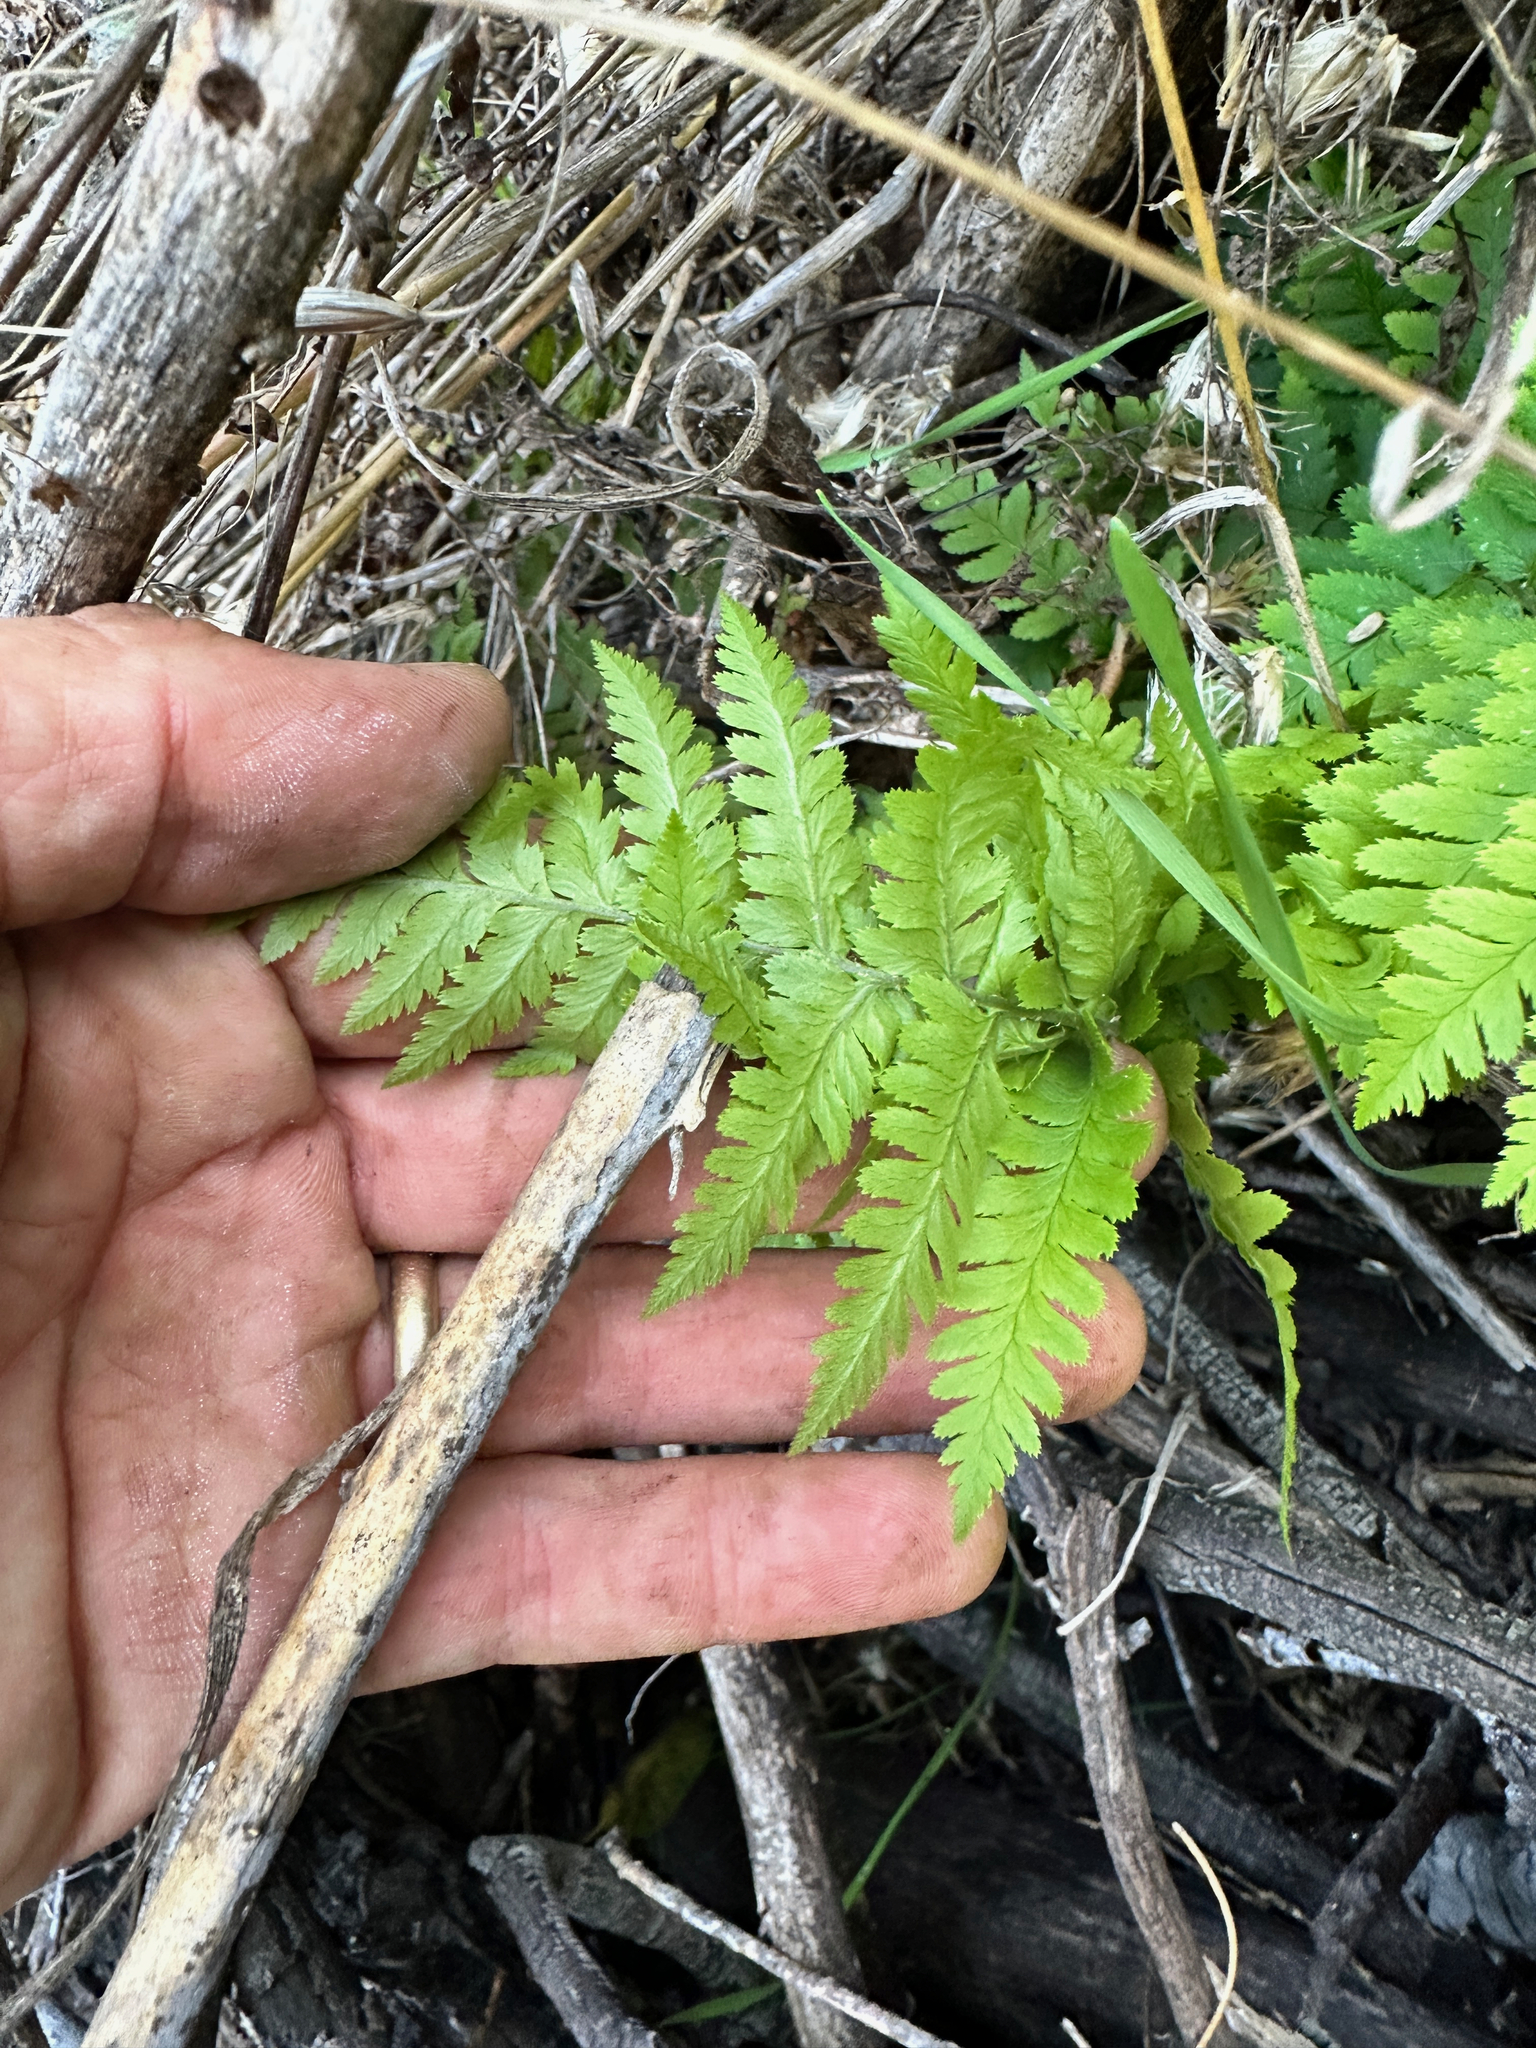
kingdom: Plantae
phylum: Tracheophyta
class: Polypodiopsida
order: Polypodiales
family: Dryopteridaceae
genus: Dryopteris
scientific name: Dryopteris arguta
